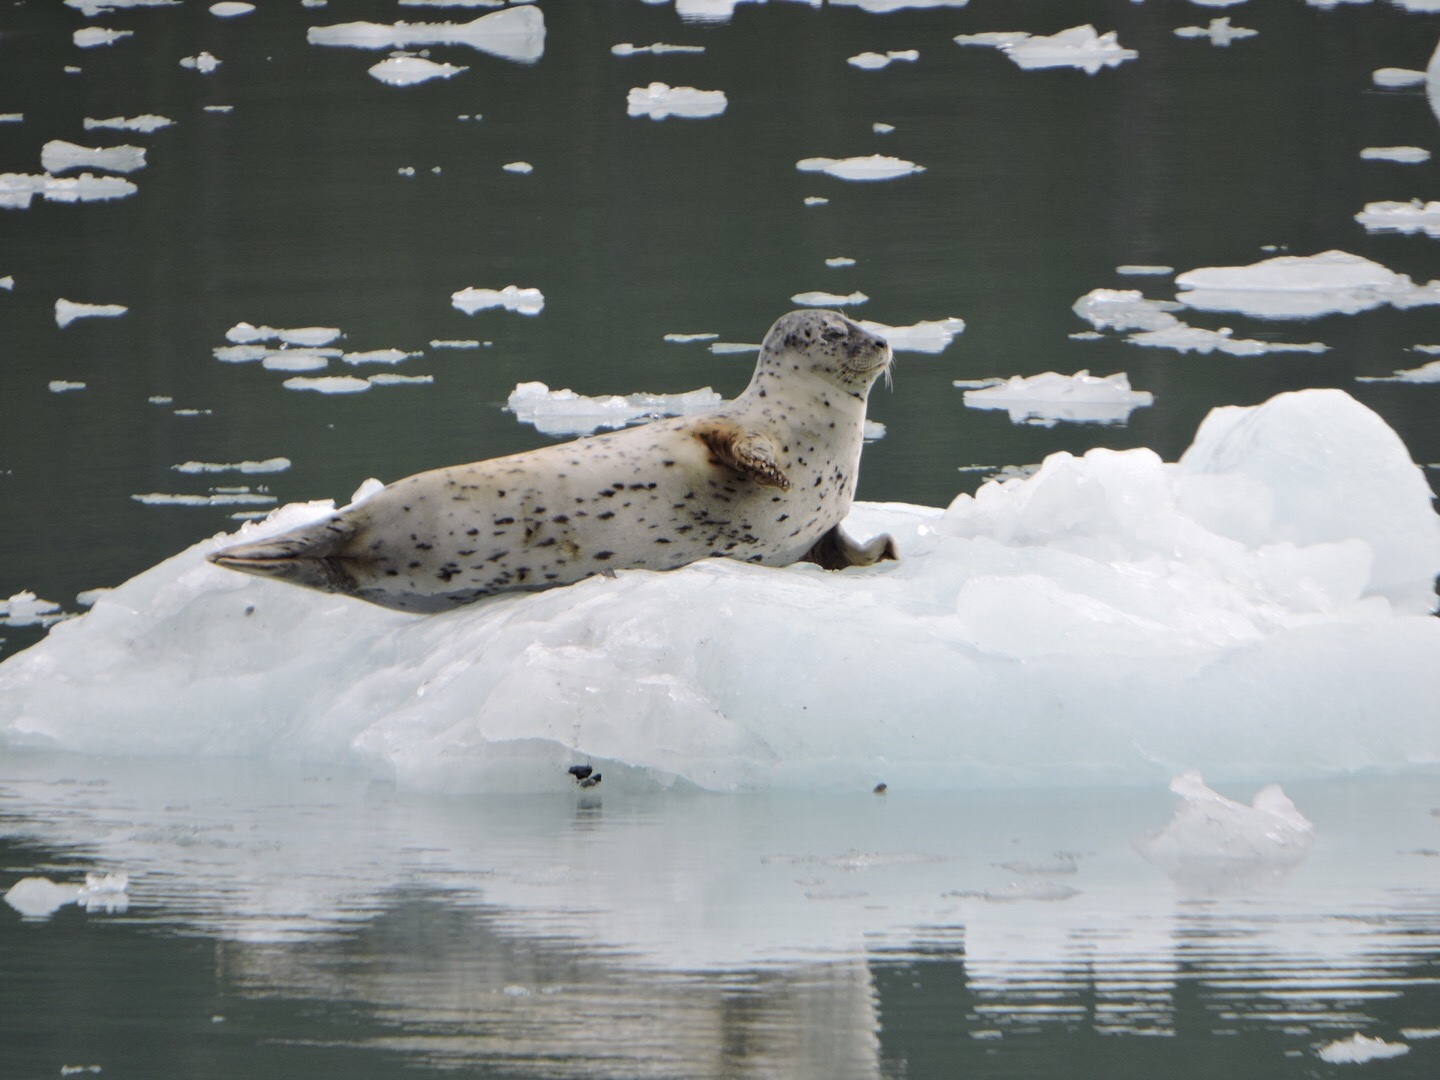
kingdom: Animalia
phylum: Chordata
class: Mammalia
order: Carnivora
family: Phocidae
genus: Phoca
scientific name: Phoca vitulina
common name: Harbor seal
